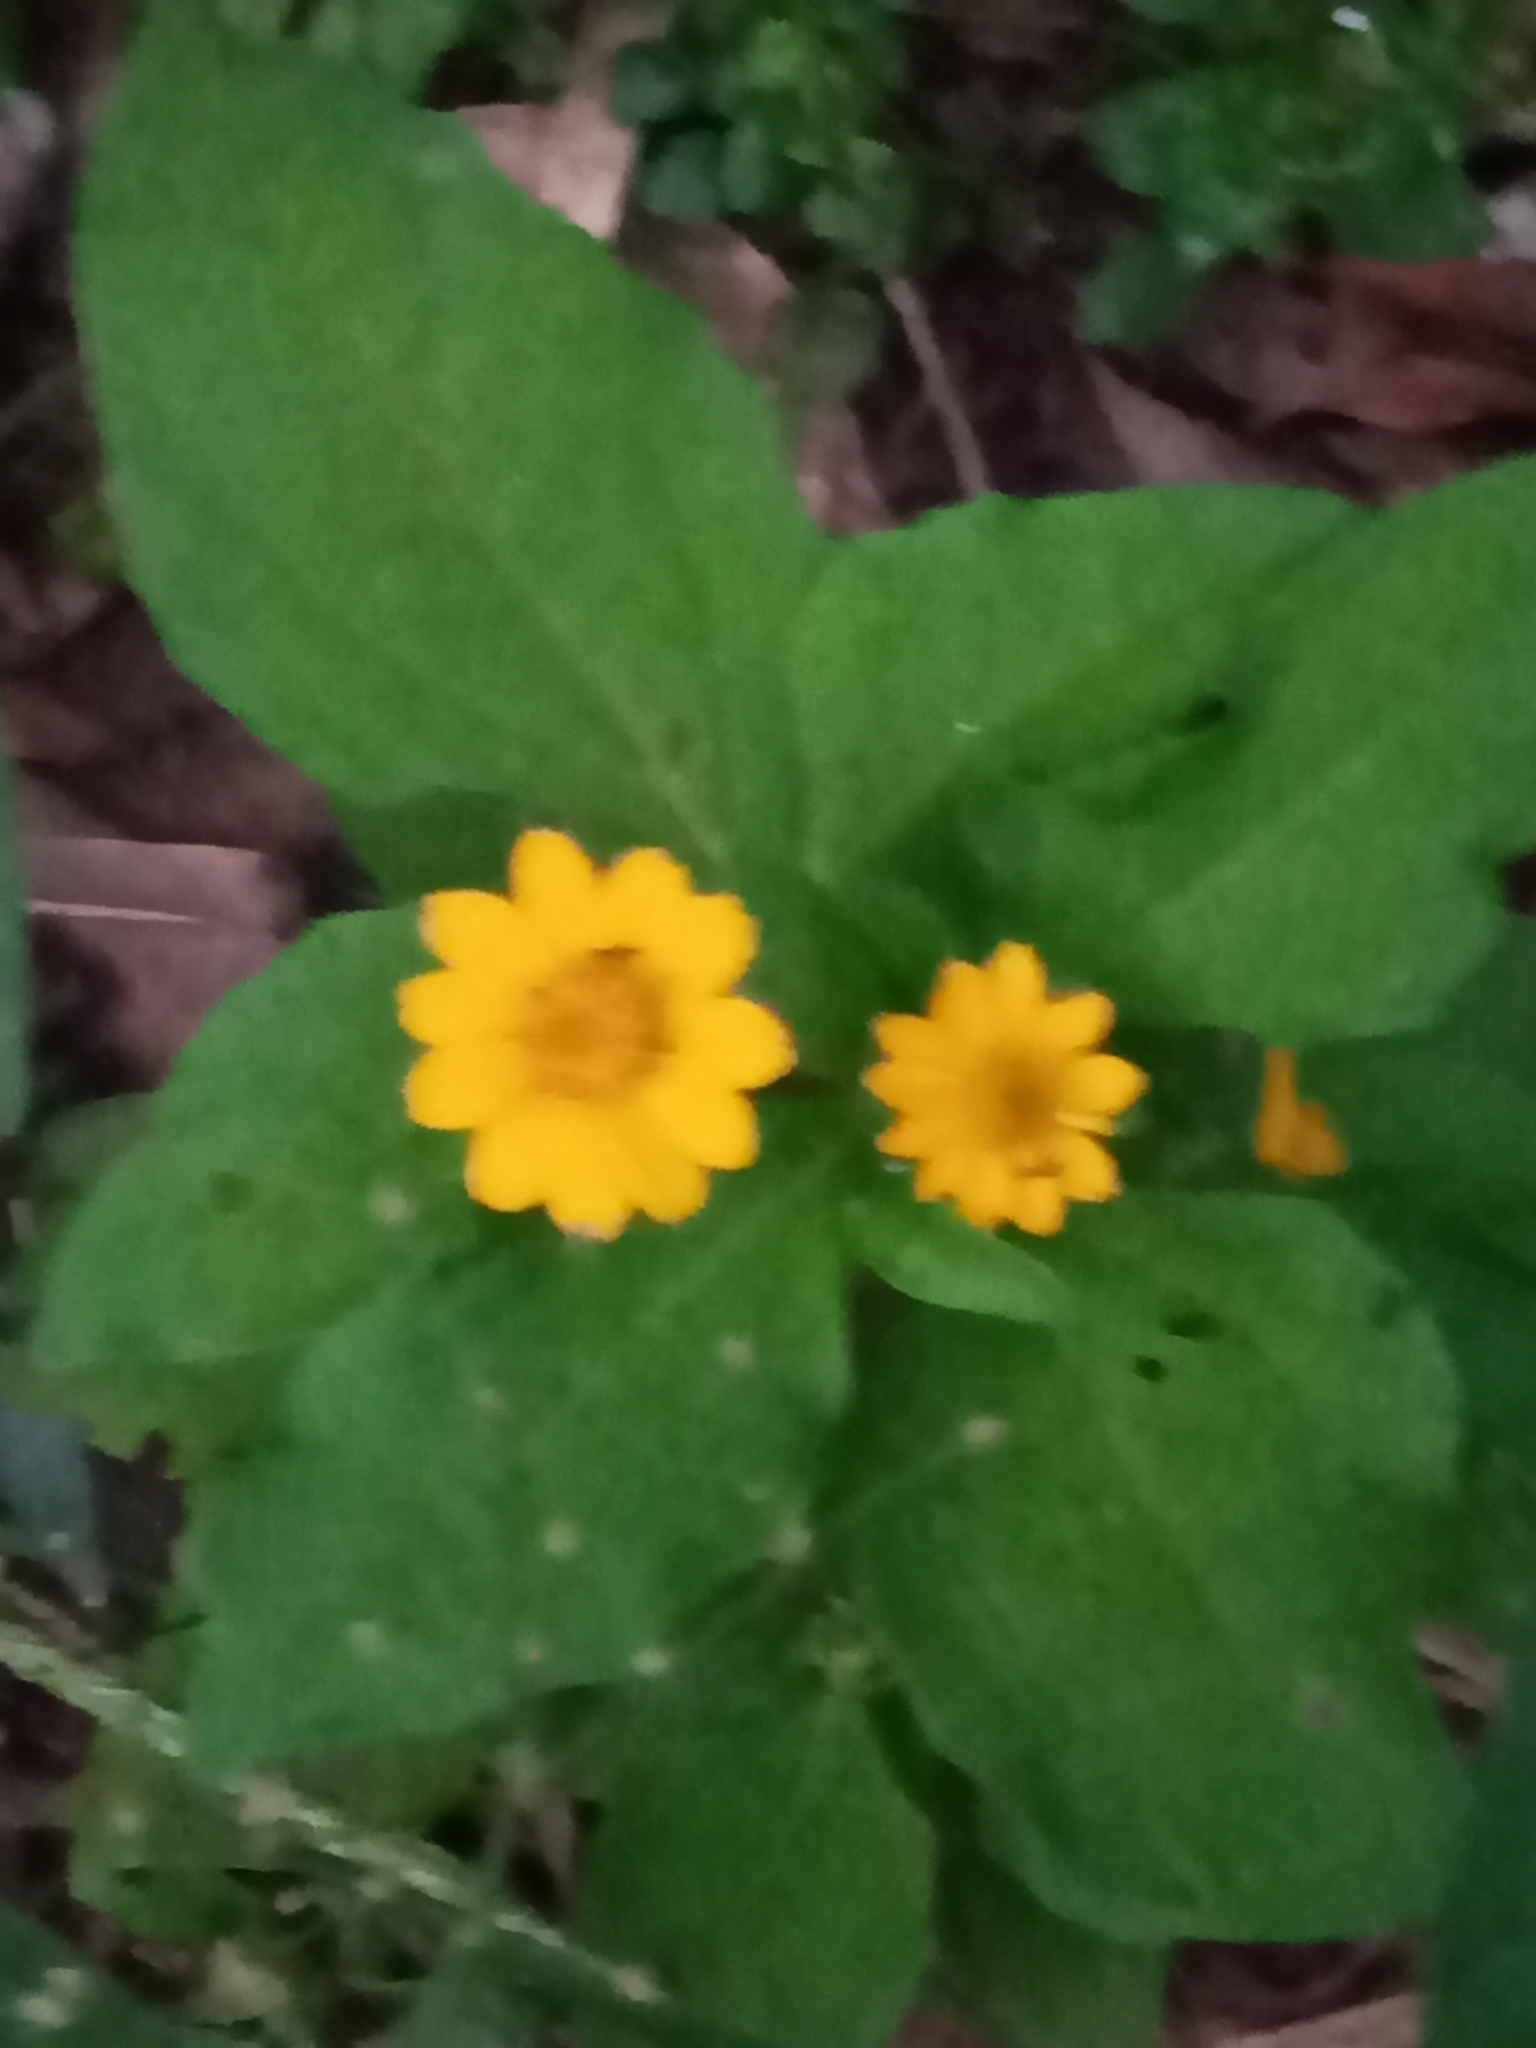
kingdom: Plantae
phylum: Tracheophyta
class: Magnoliopsida
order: Asterales
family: Asteraceae
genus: Melampodium
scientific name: Melampodium divaricatum
